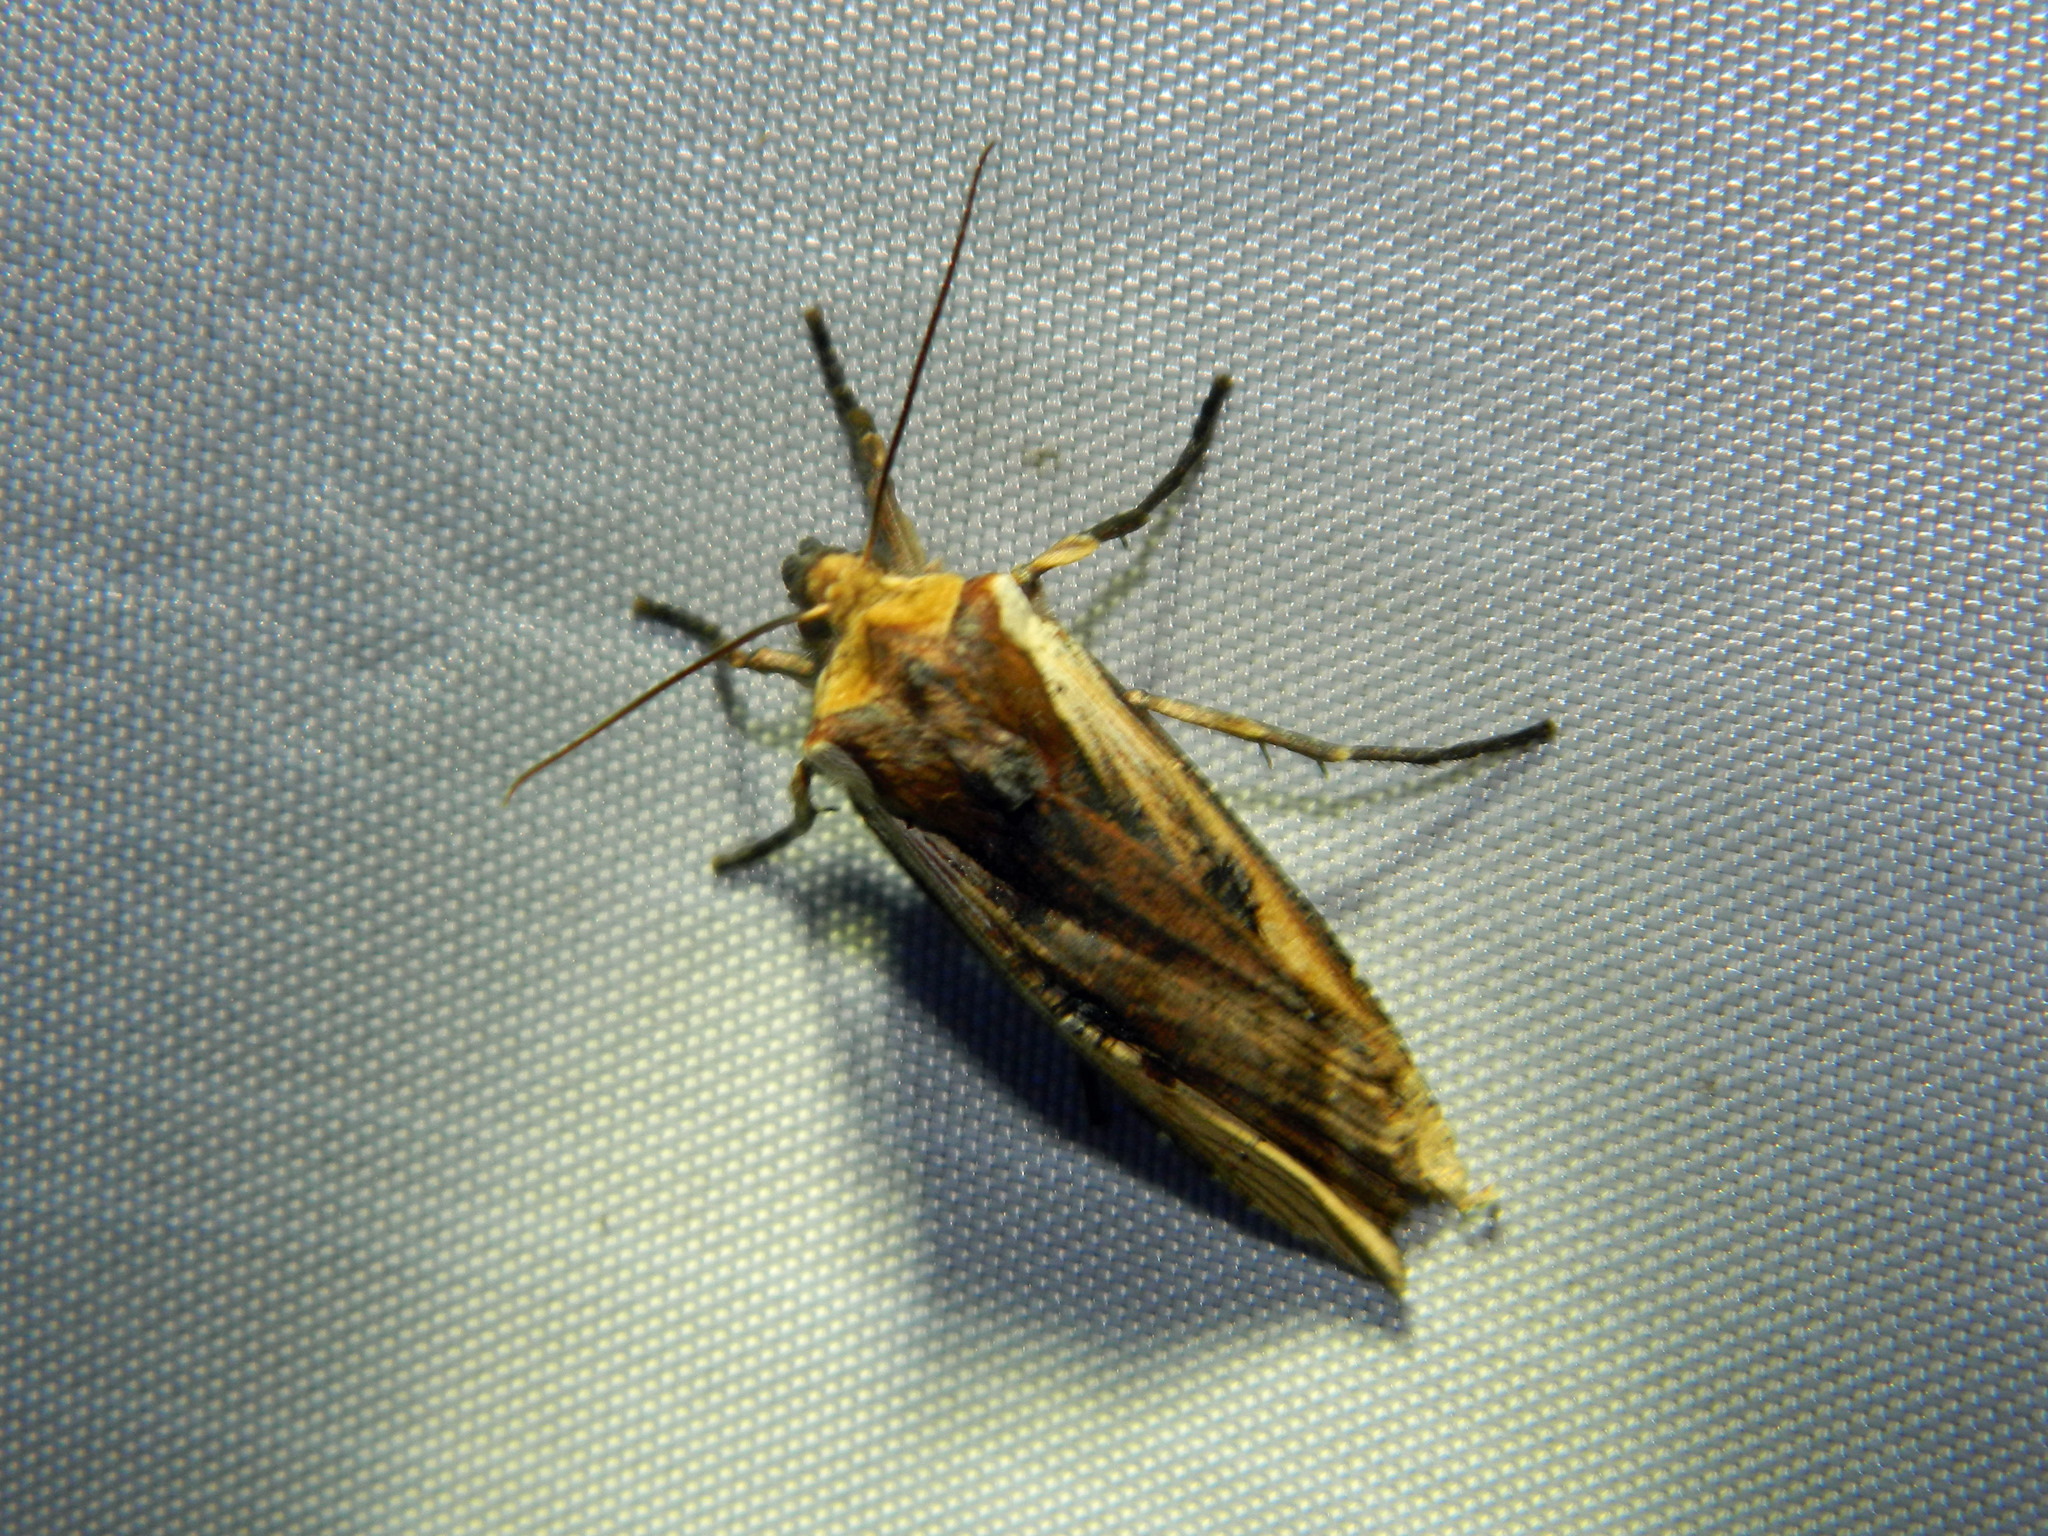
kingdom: Animalia
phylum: Arthropoda
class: Insecta
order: Lepidoptera
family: Noctuidae
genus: Xylena
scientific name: Xylena curvimacula
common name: Dot-and-dash swordgrass moth
